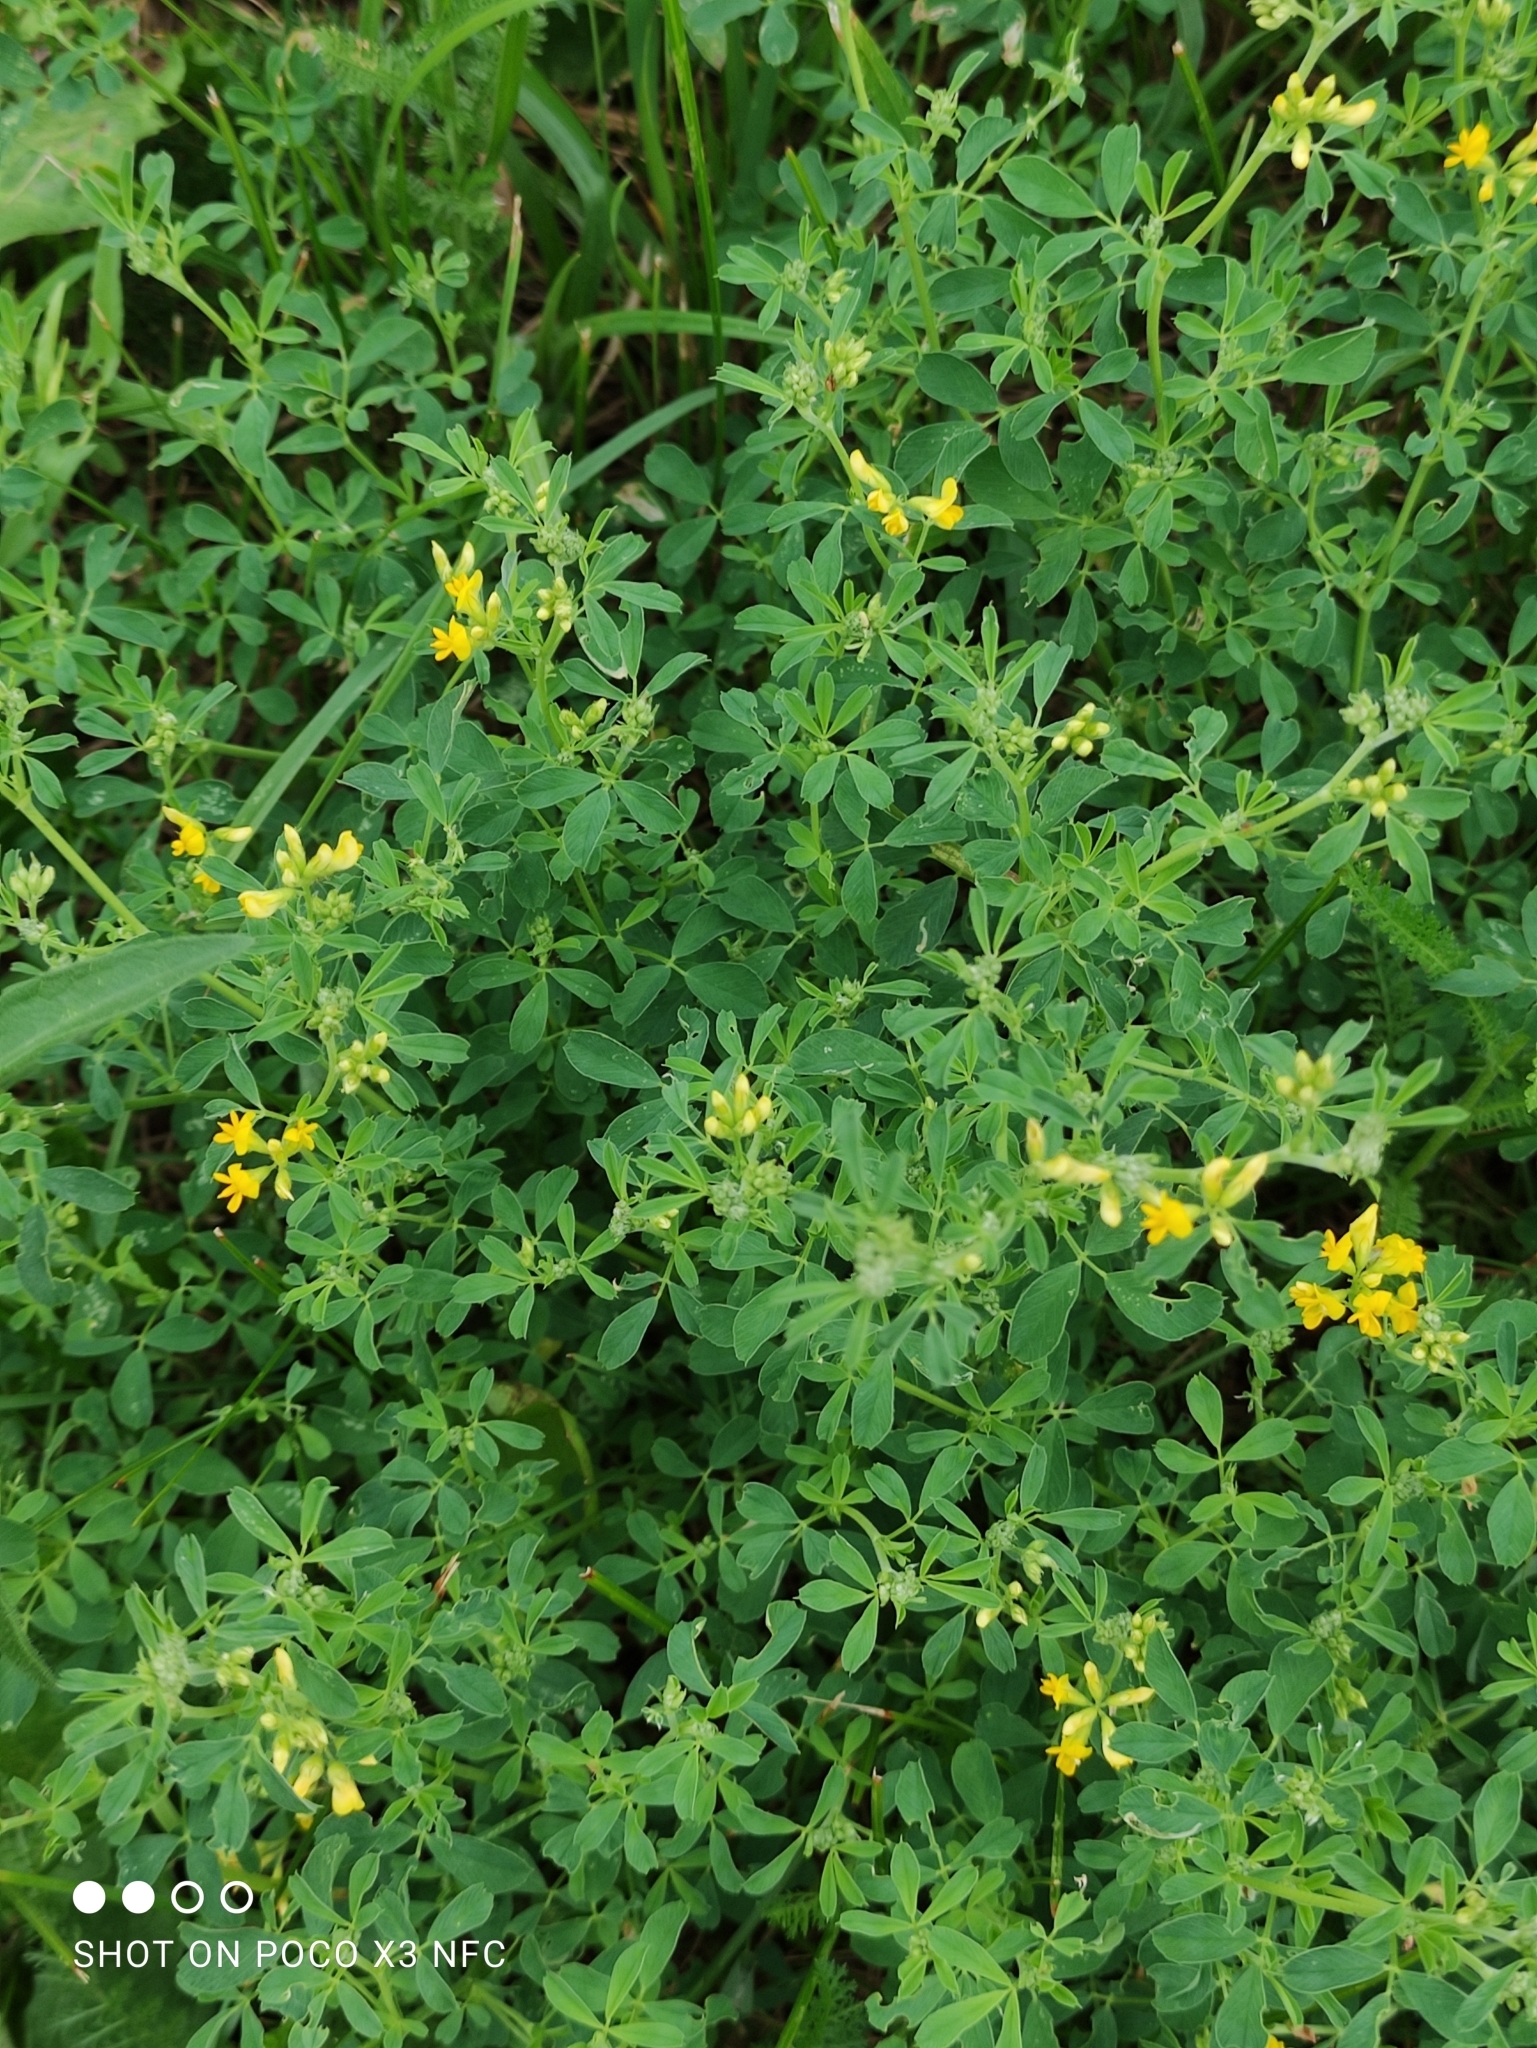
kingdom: Plantae
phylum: Tracheophyta
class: Magnoliopsida
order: Fabales
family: Fabaceae
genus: Medicago
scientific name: Medicago falcata
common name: Sickle medick
